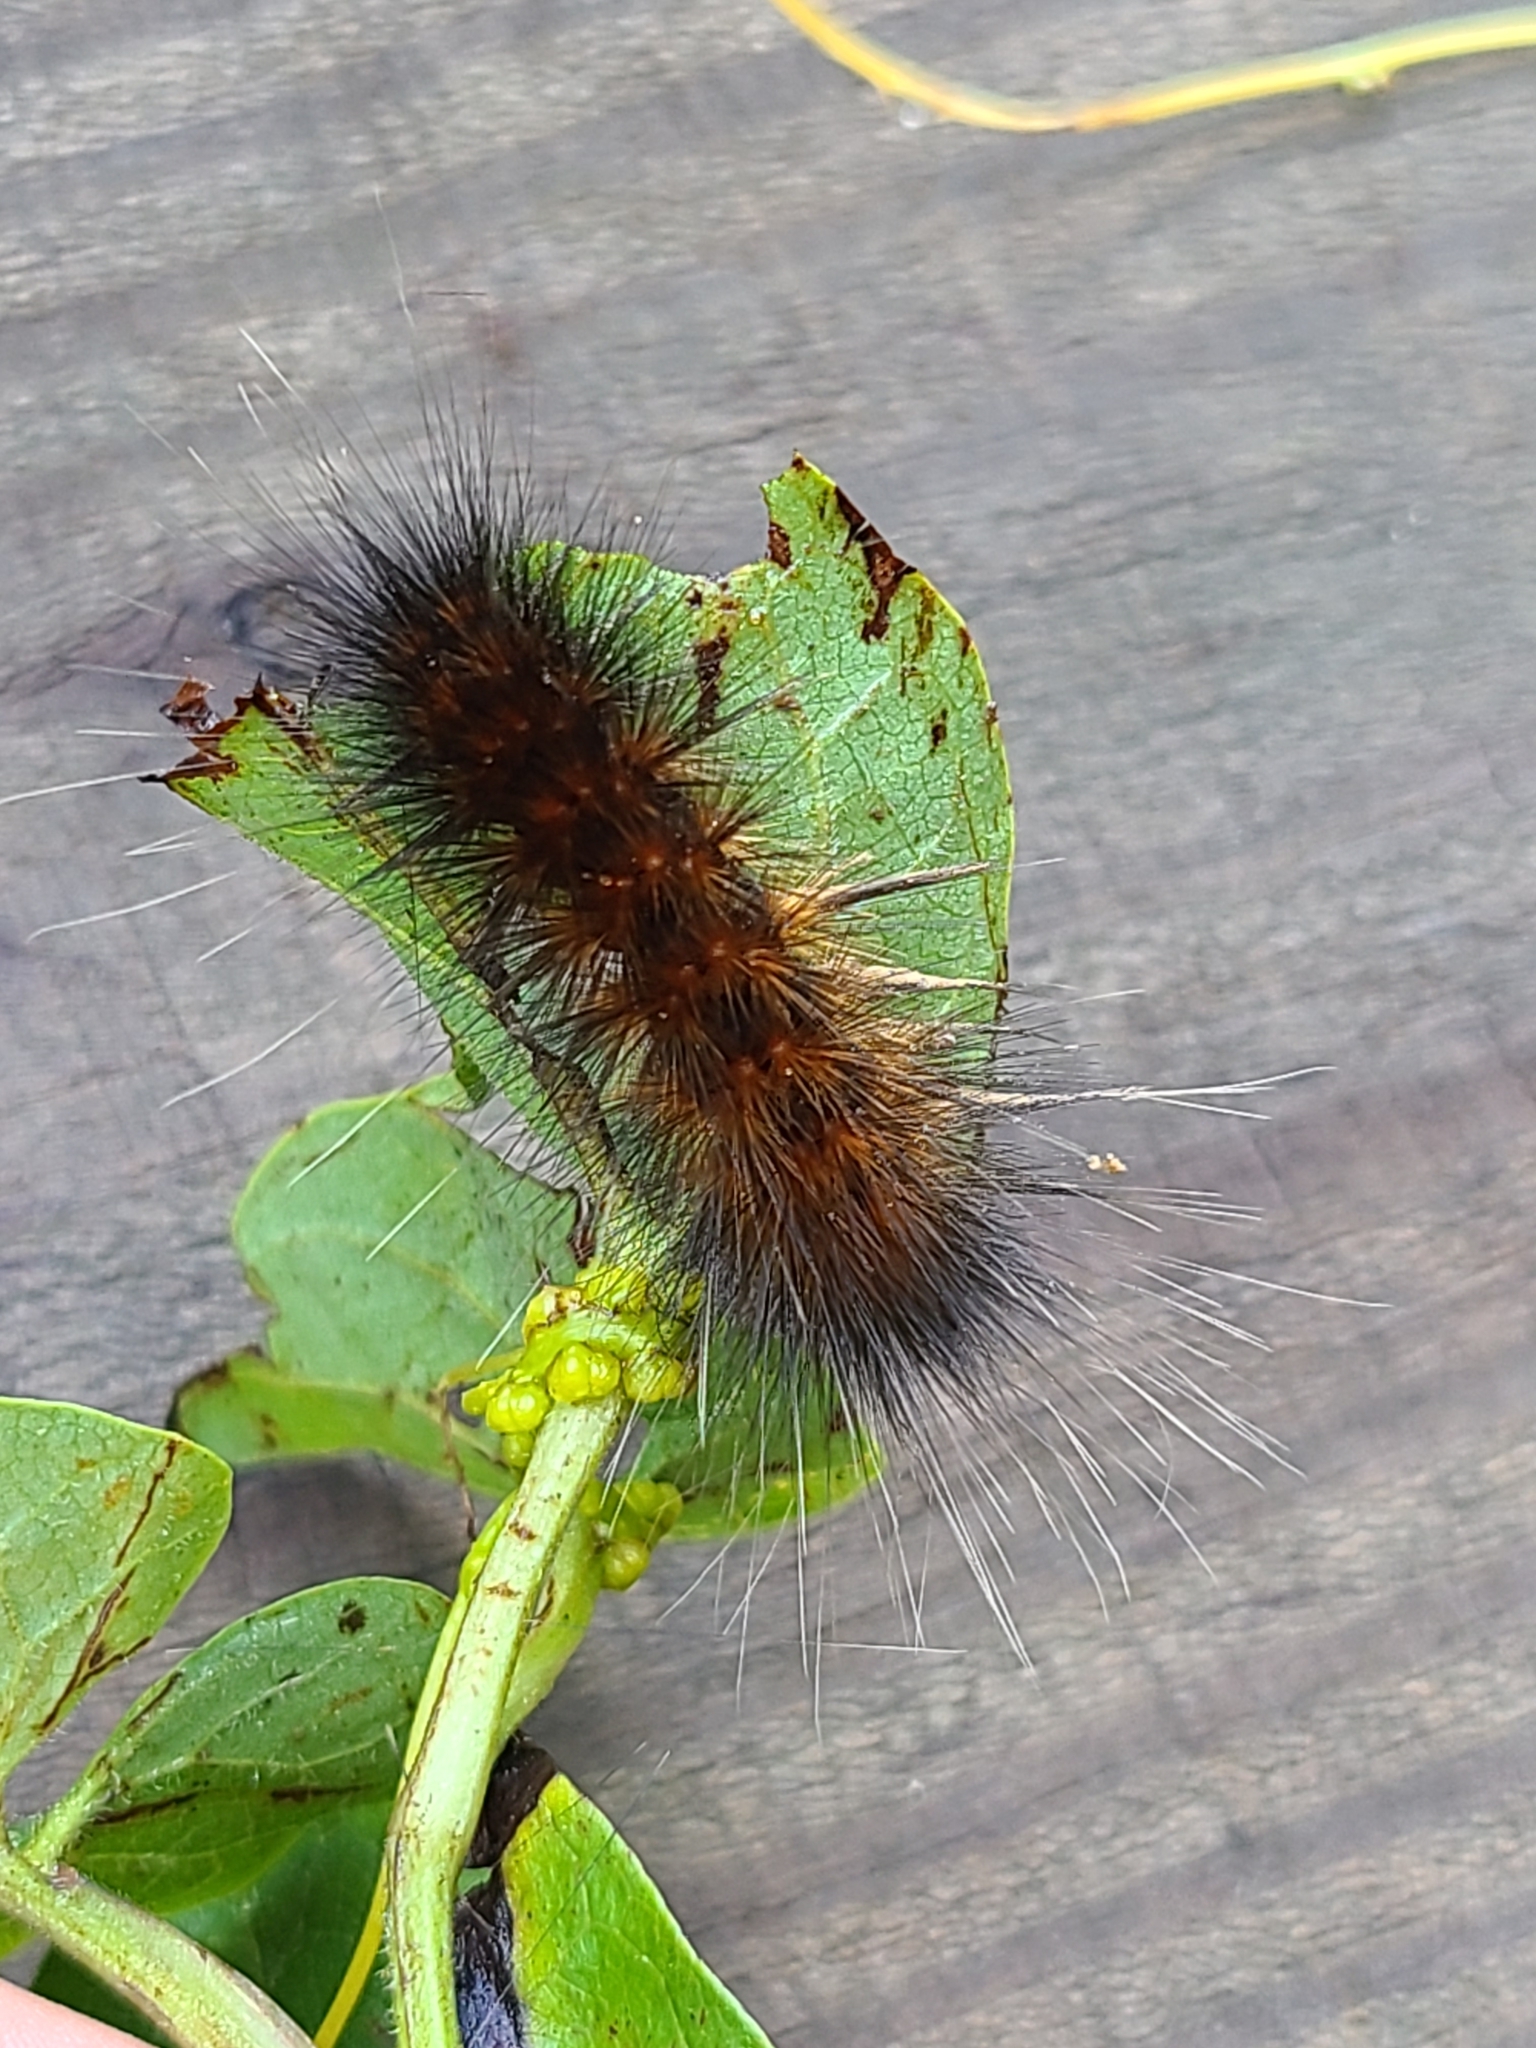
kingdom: Animalia
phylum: Arthropoda
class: Insecta
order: Lepidoptera
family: Erebidae
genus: Spilosoma
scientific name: Spilosoma virginica
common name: Virginia tiger moth
